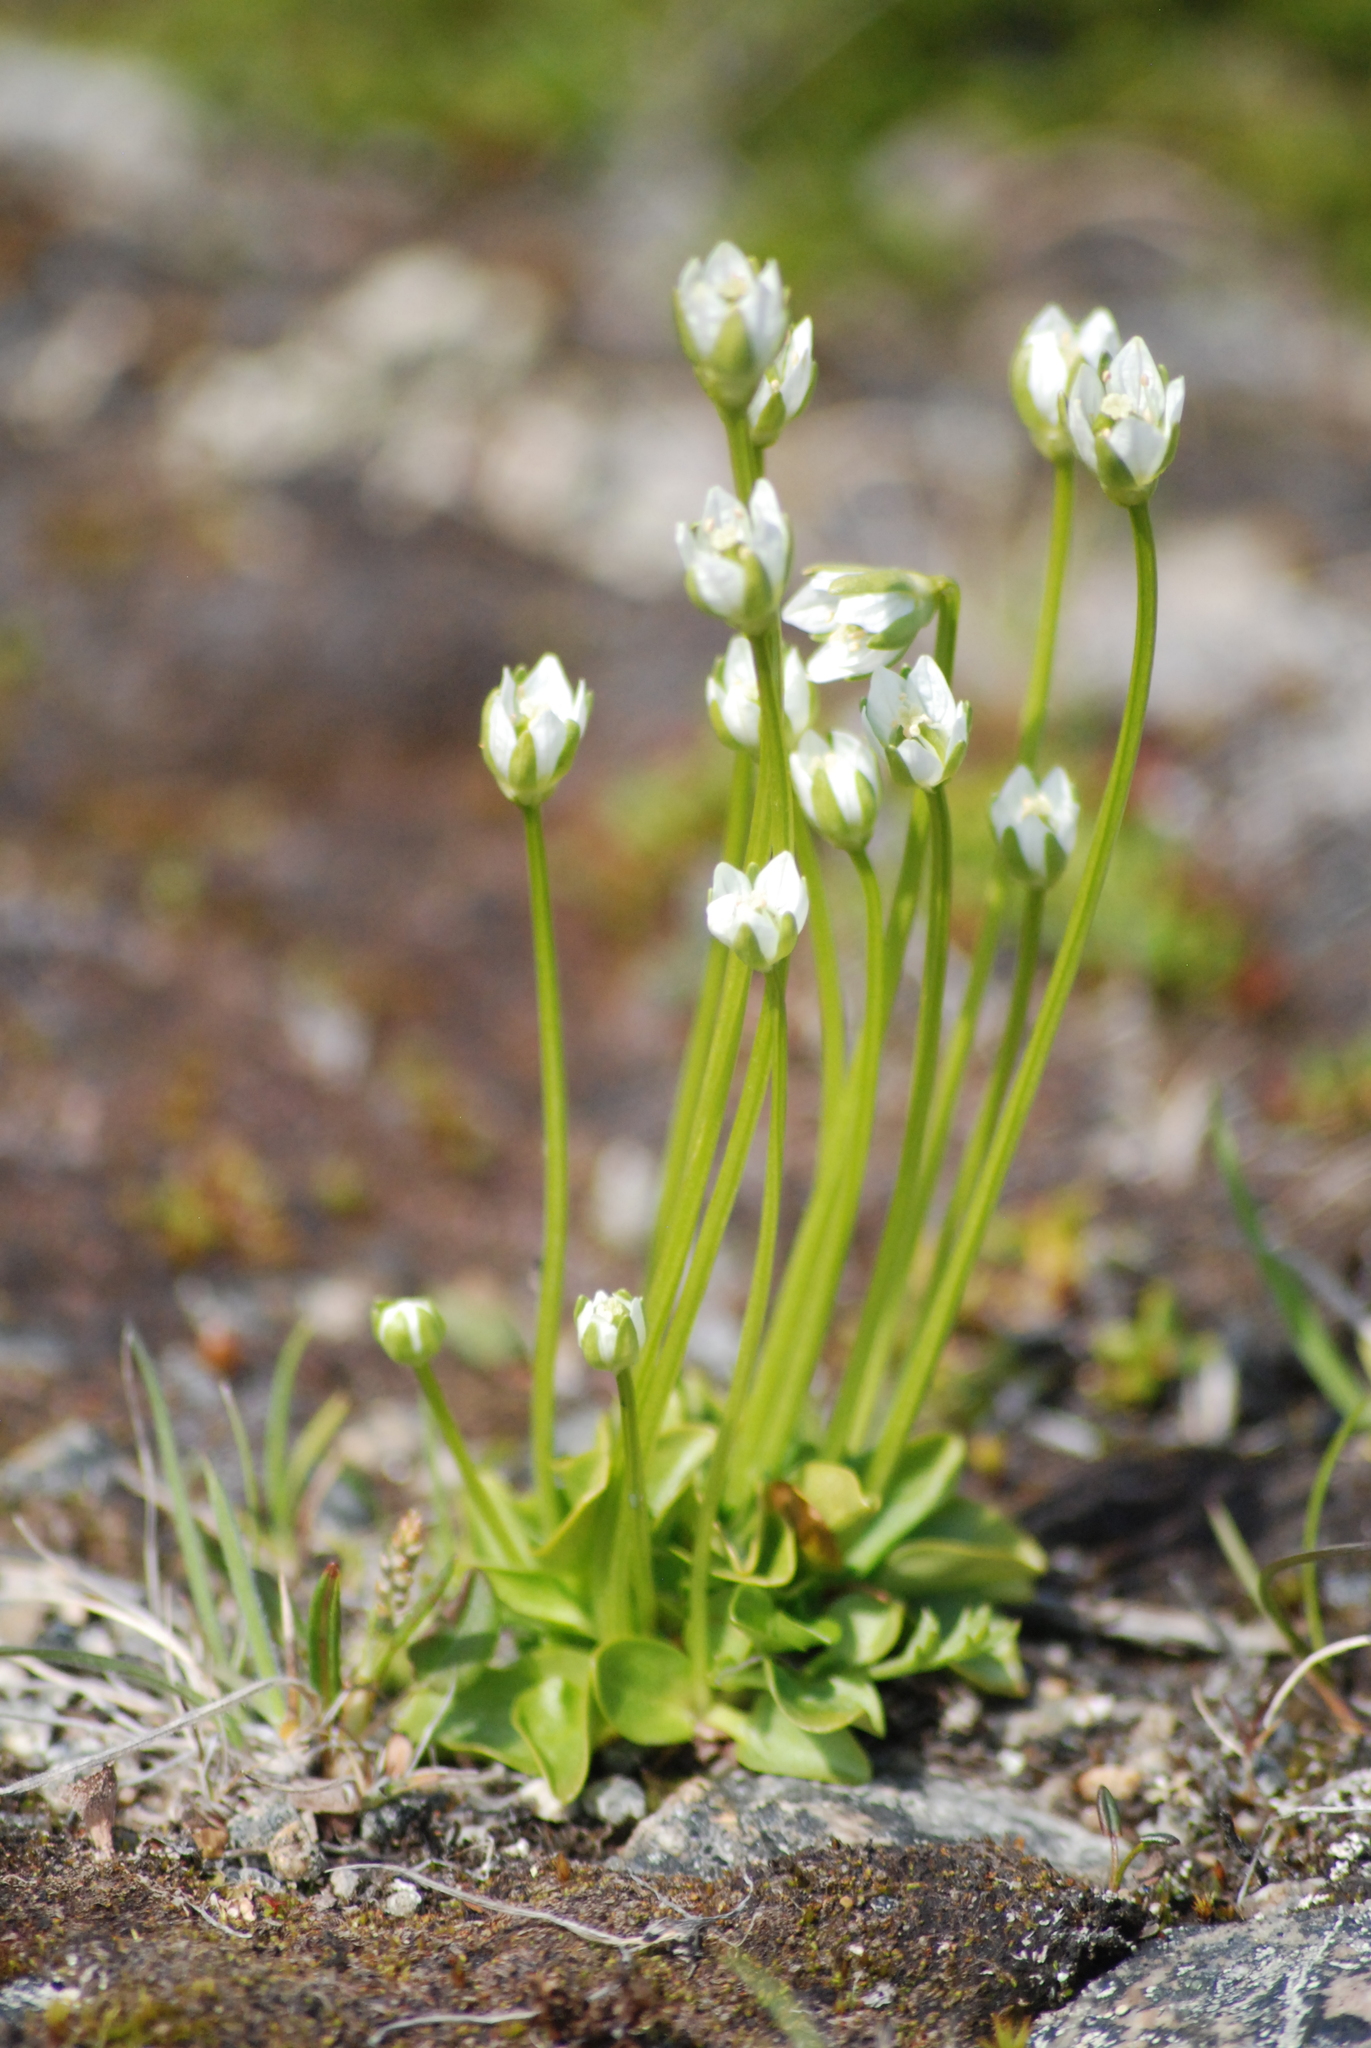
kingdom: Plantae
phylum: Tracheophyta
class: Magnoliopsida
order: Celastrales
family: Parnassiaceae
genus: Parnassia
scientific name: Parnassia kotzebuei
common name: Kotzebue's grass-of-parnassus
